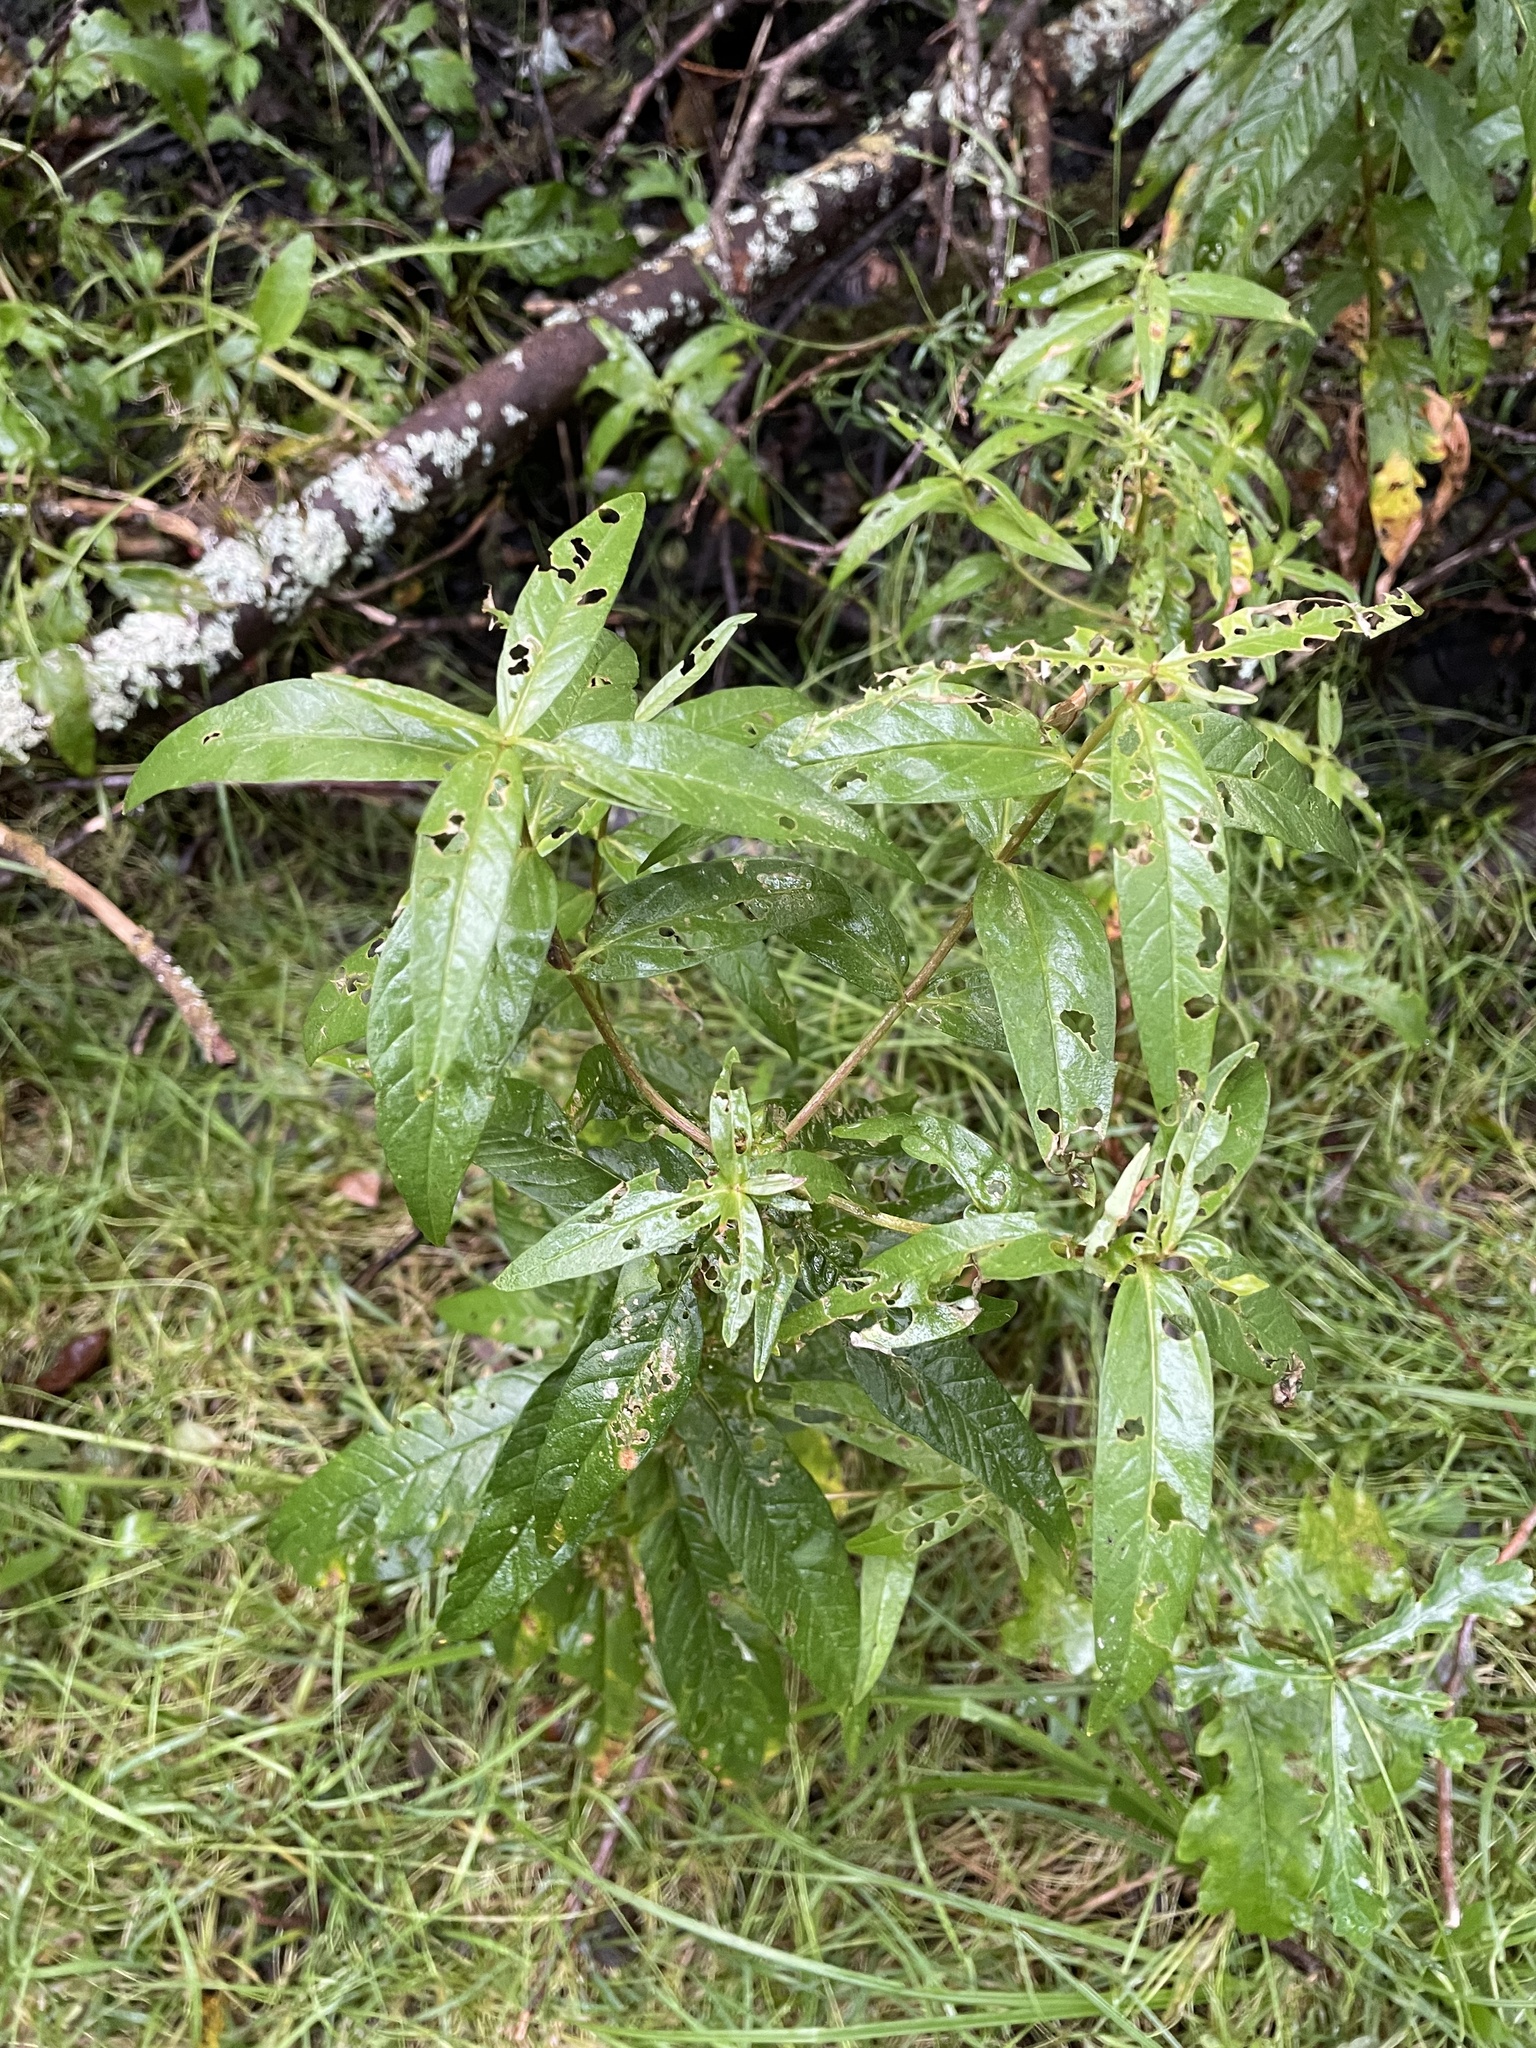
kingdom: Plantae
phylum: Tracheophyta
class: Magnoliopsida
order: Ericales
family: Primulaceae
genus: Lysimachia
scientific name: Lysimachia vulgaris
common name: Yellow loosestrife
